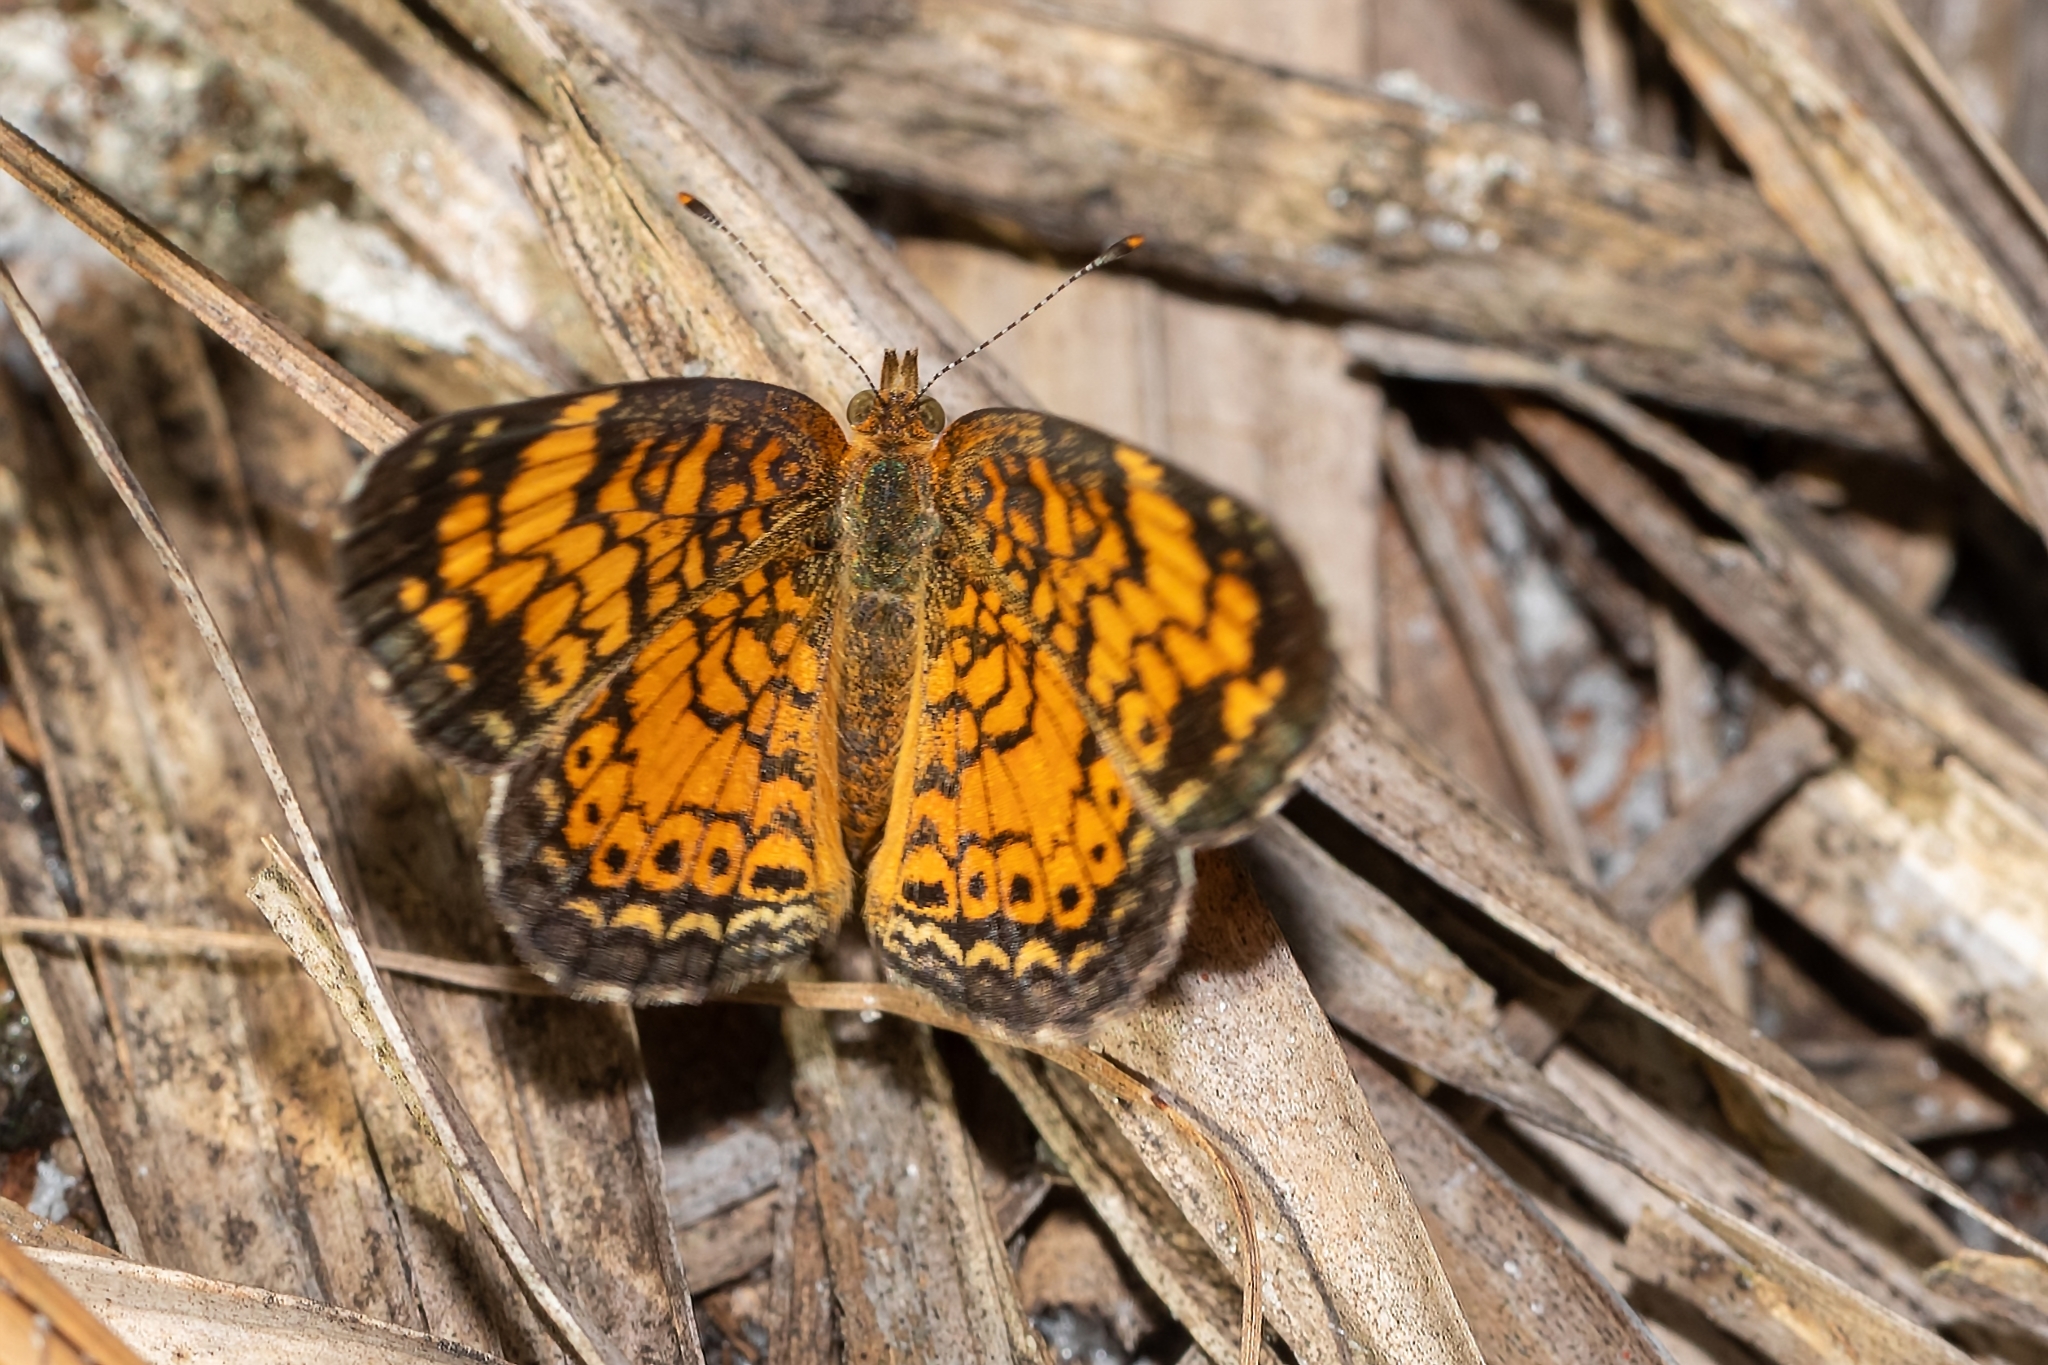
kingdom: Animalia
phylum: Arthropoda
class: Insecta
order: Lepidoptera
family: Nymphalidae
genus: Phyciodes
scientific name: Phyciodes tharos
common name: Pearl crescent
